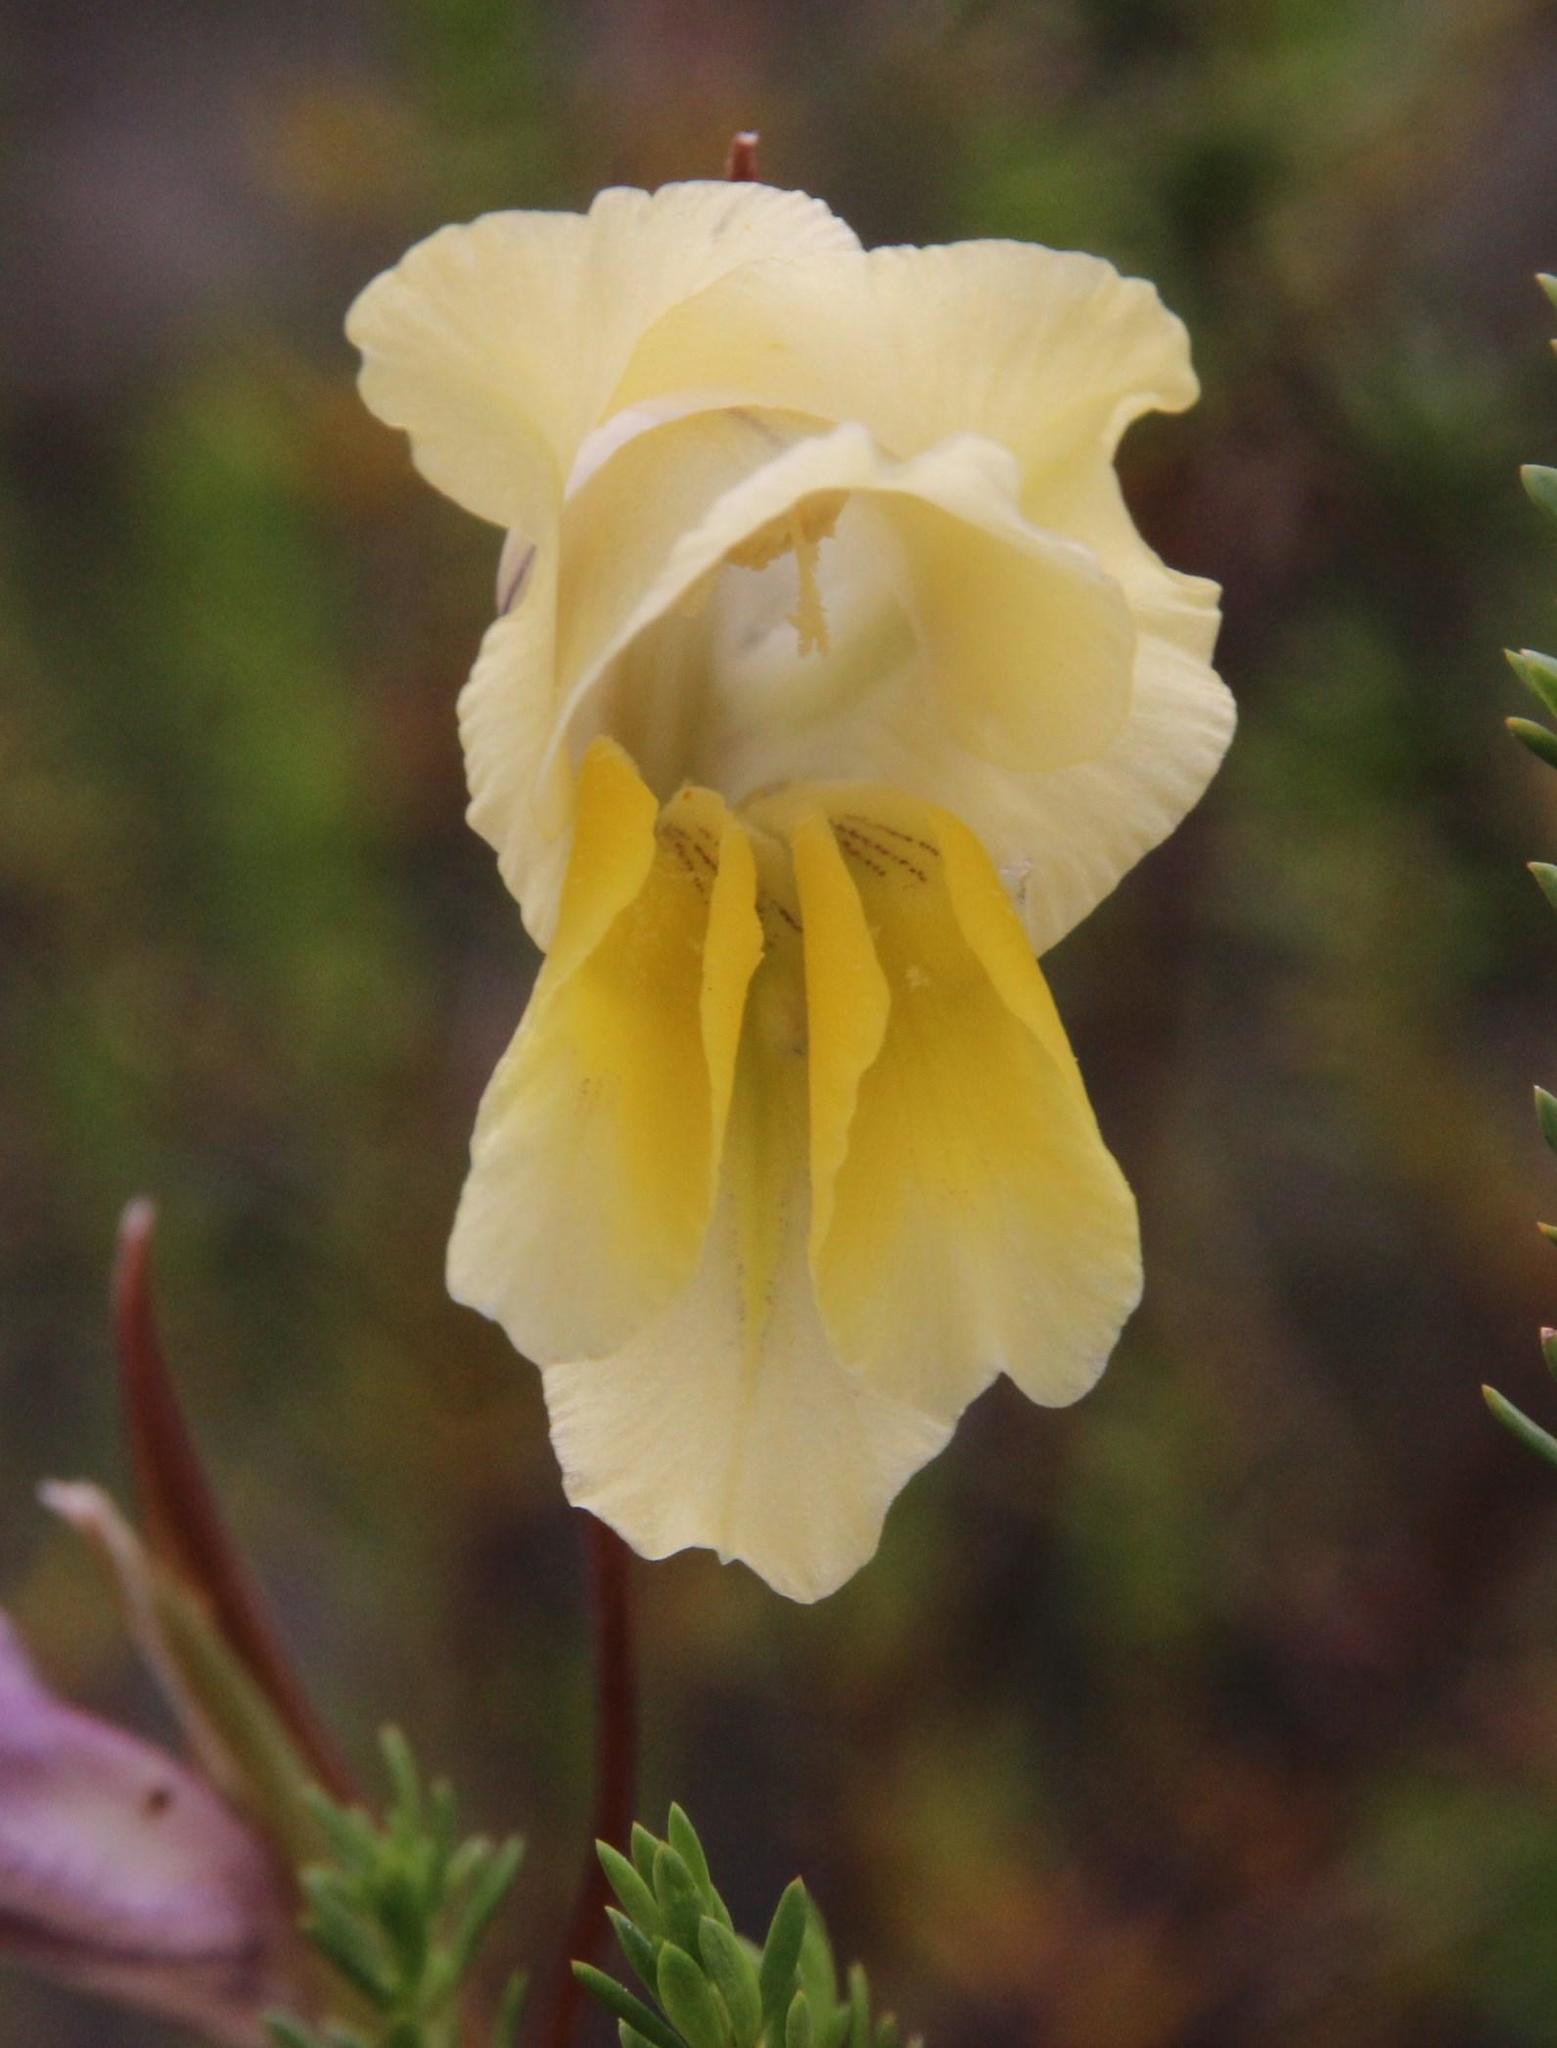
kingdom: Plantae
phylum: Tracheophyta
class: Liliopsida
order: Asparagales
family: Iridaceae
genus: Gladiolus
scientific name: Gladiolus carinatus
